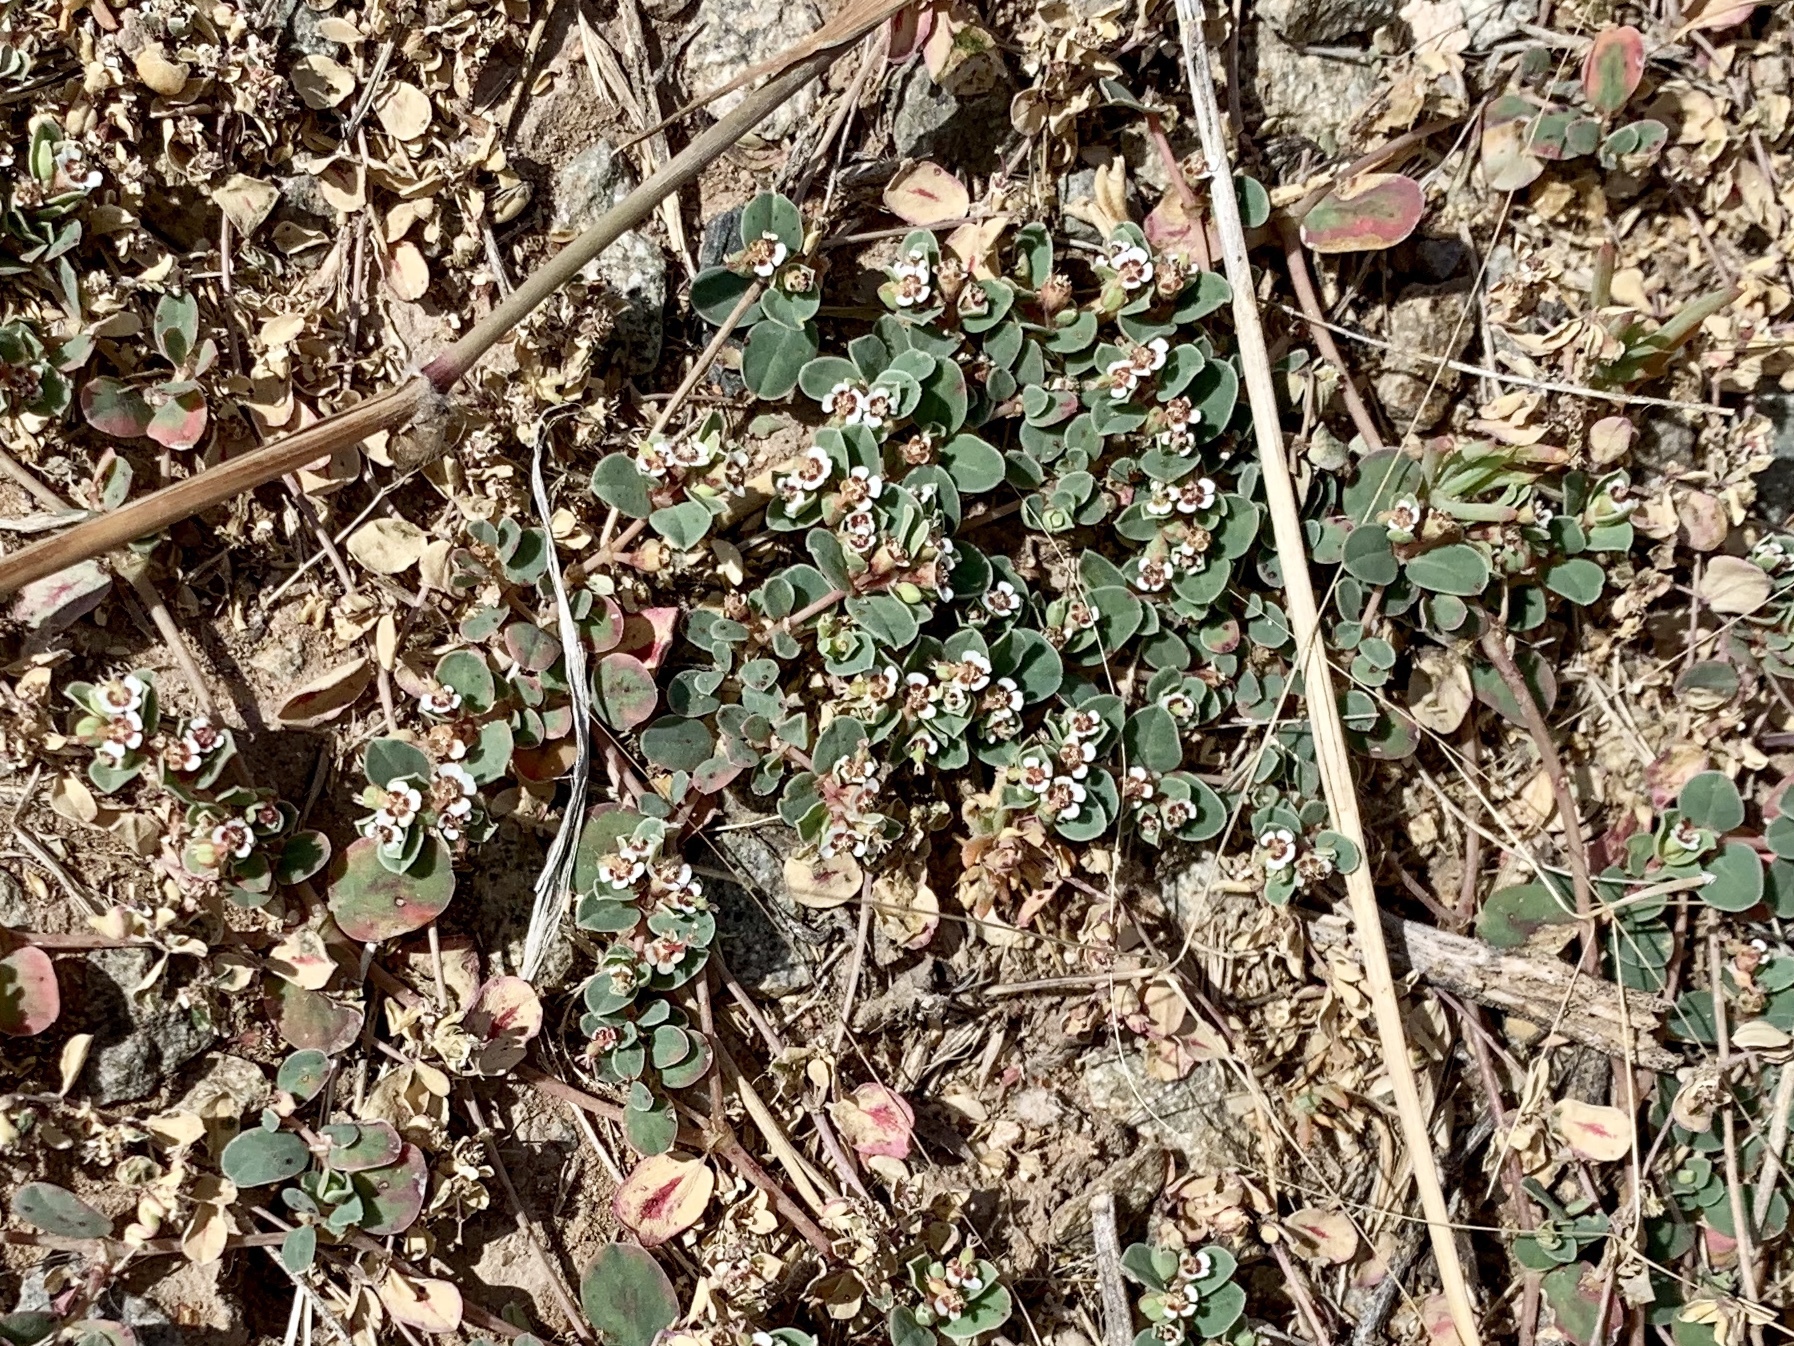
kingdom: Plantae
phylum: Tracheophyta
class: Magnoliopsida
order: Malpighiales
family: Euphorbiaceae
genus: Euphorbia
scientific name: Euphorbia albomarginata
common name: Whitemargin sandmat
